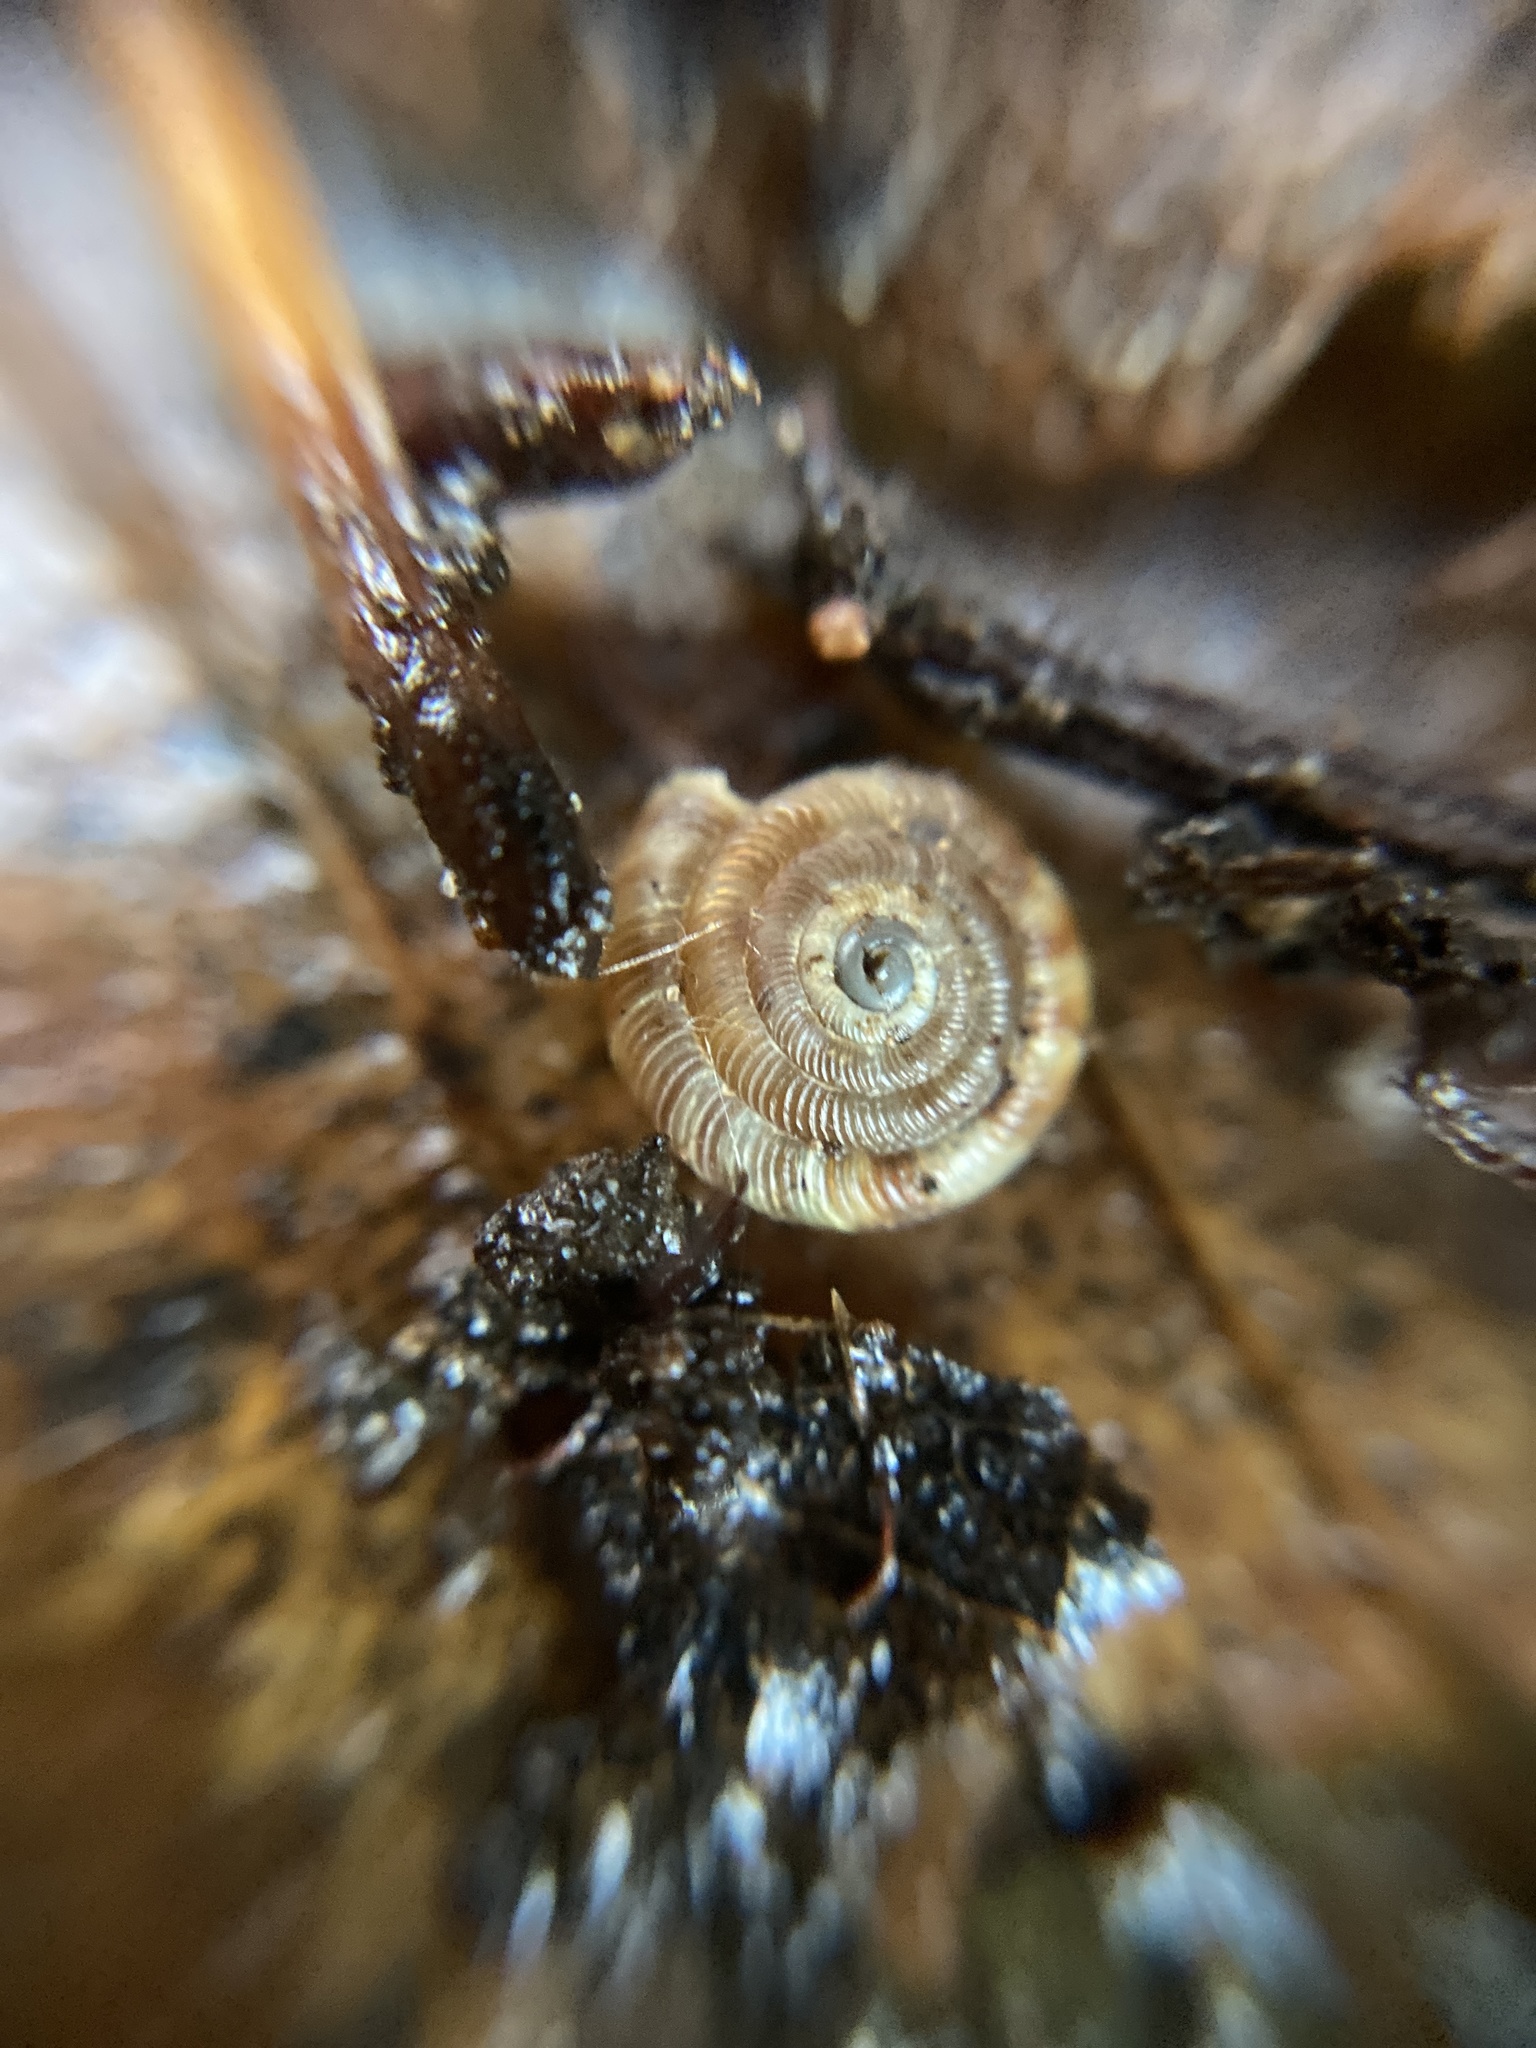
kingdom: Animalia
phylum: Mollusca
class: Gastropoda
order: Stylommatophora
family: Discidae
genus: Discus
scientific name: Discus rotundatus
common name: Rounded snail
